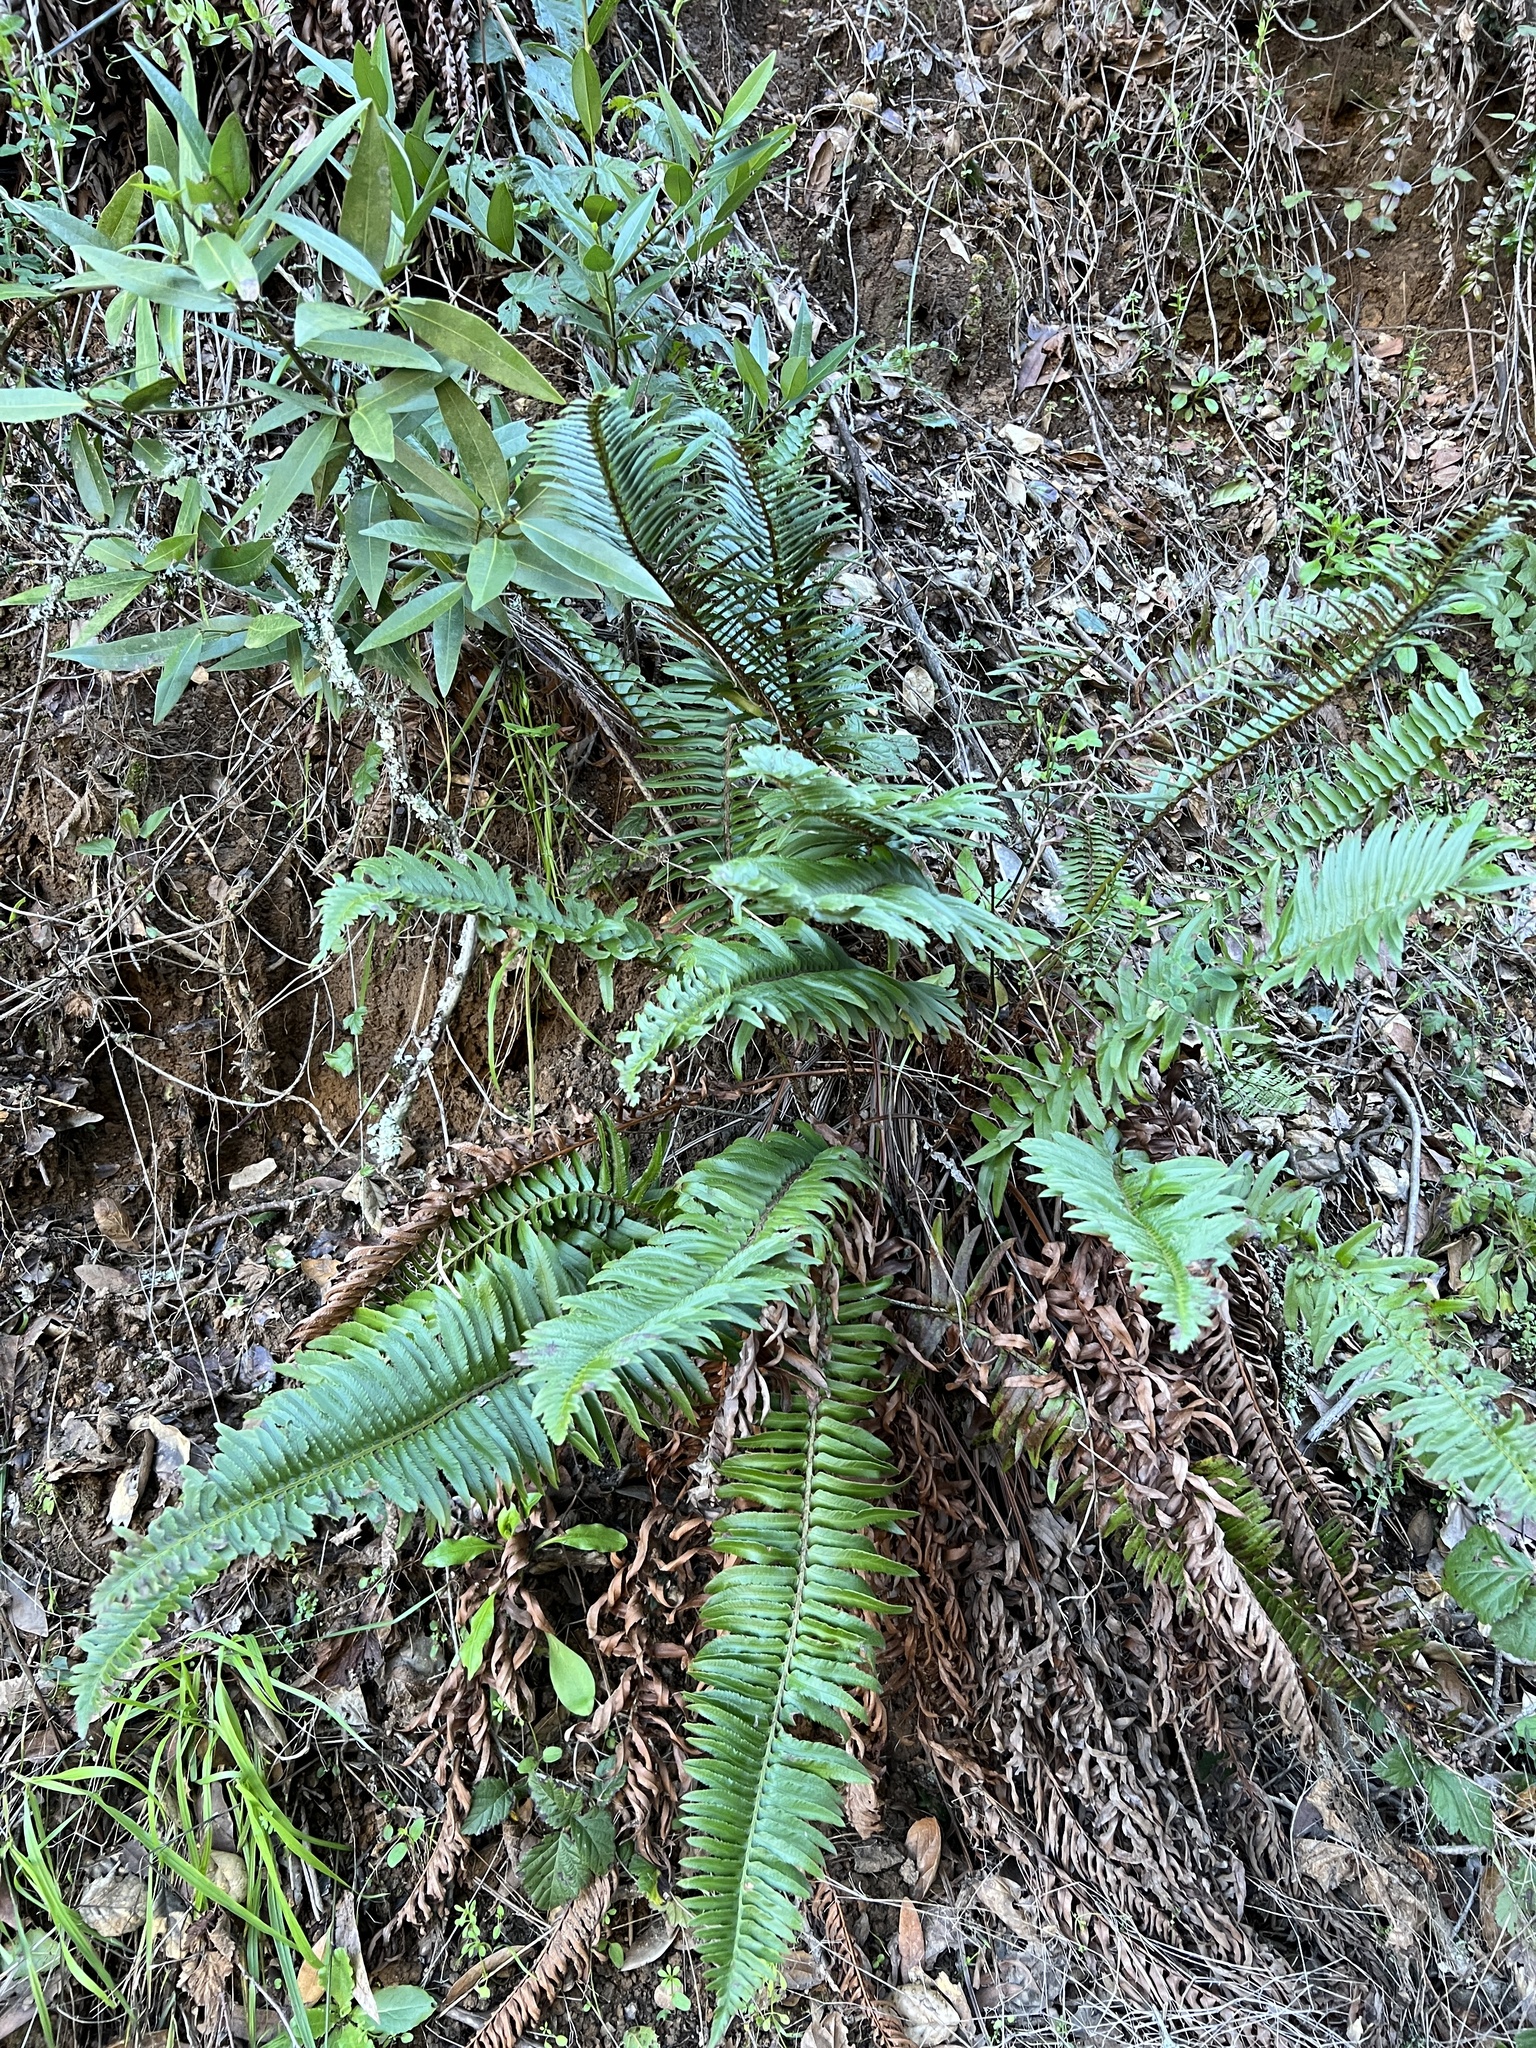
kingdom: Plantae
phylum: Tracheophyta
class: Polypodiopsida
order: Polypodiales
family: Dryopteridaceae
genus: Polystichum
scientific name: Polystichum munitum
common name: Western sword-fern
